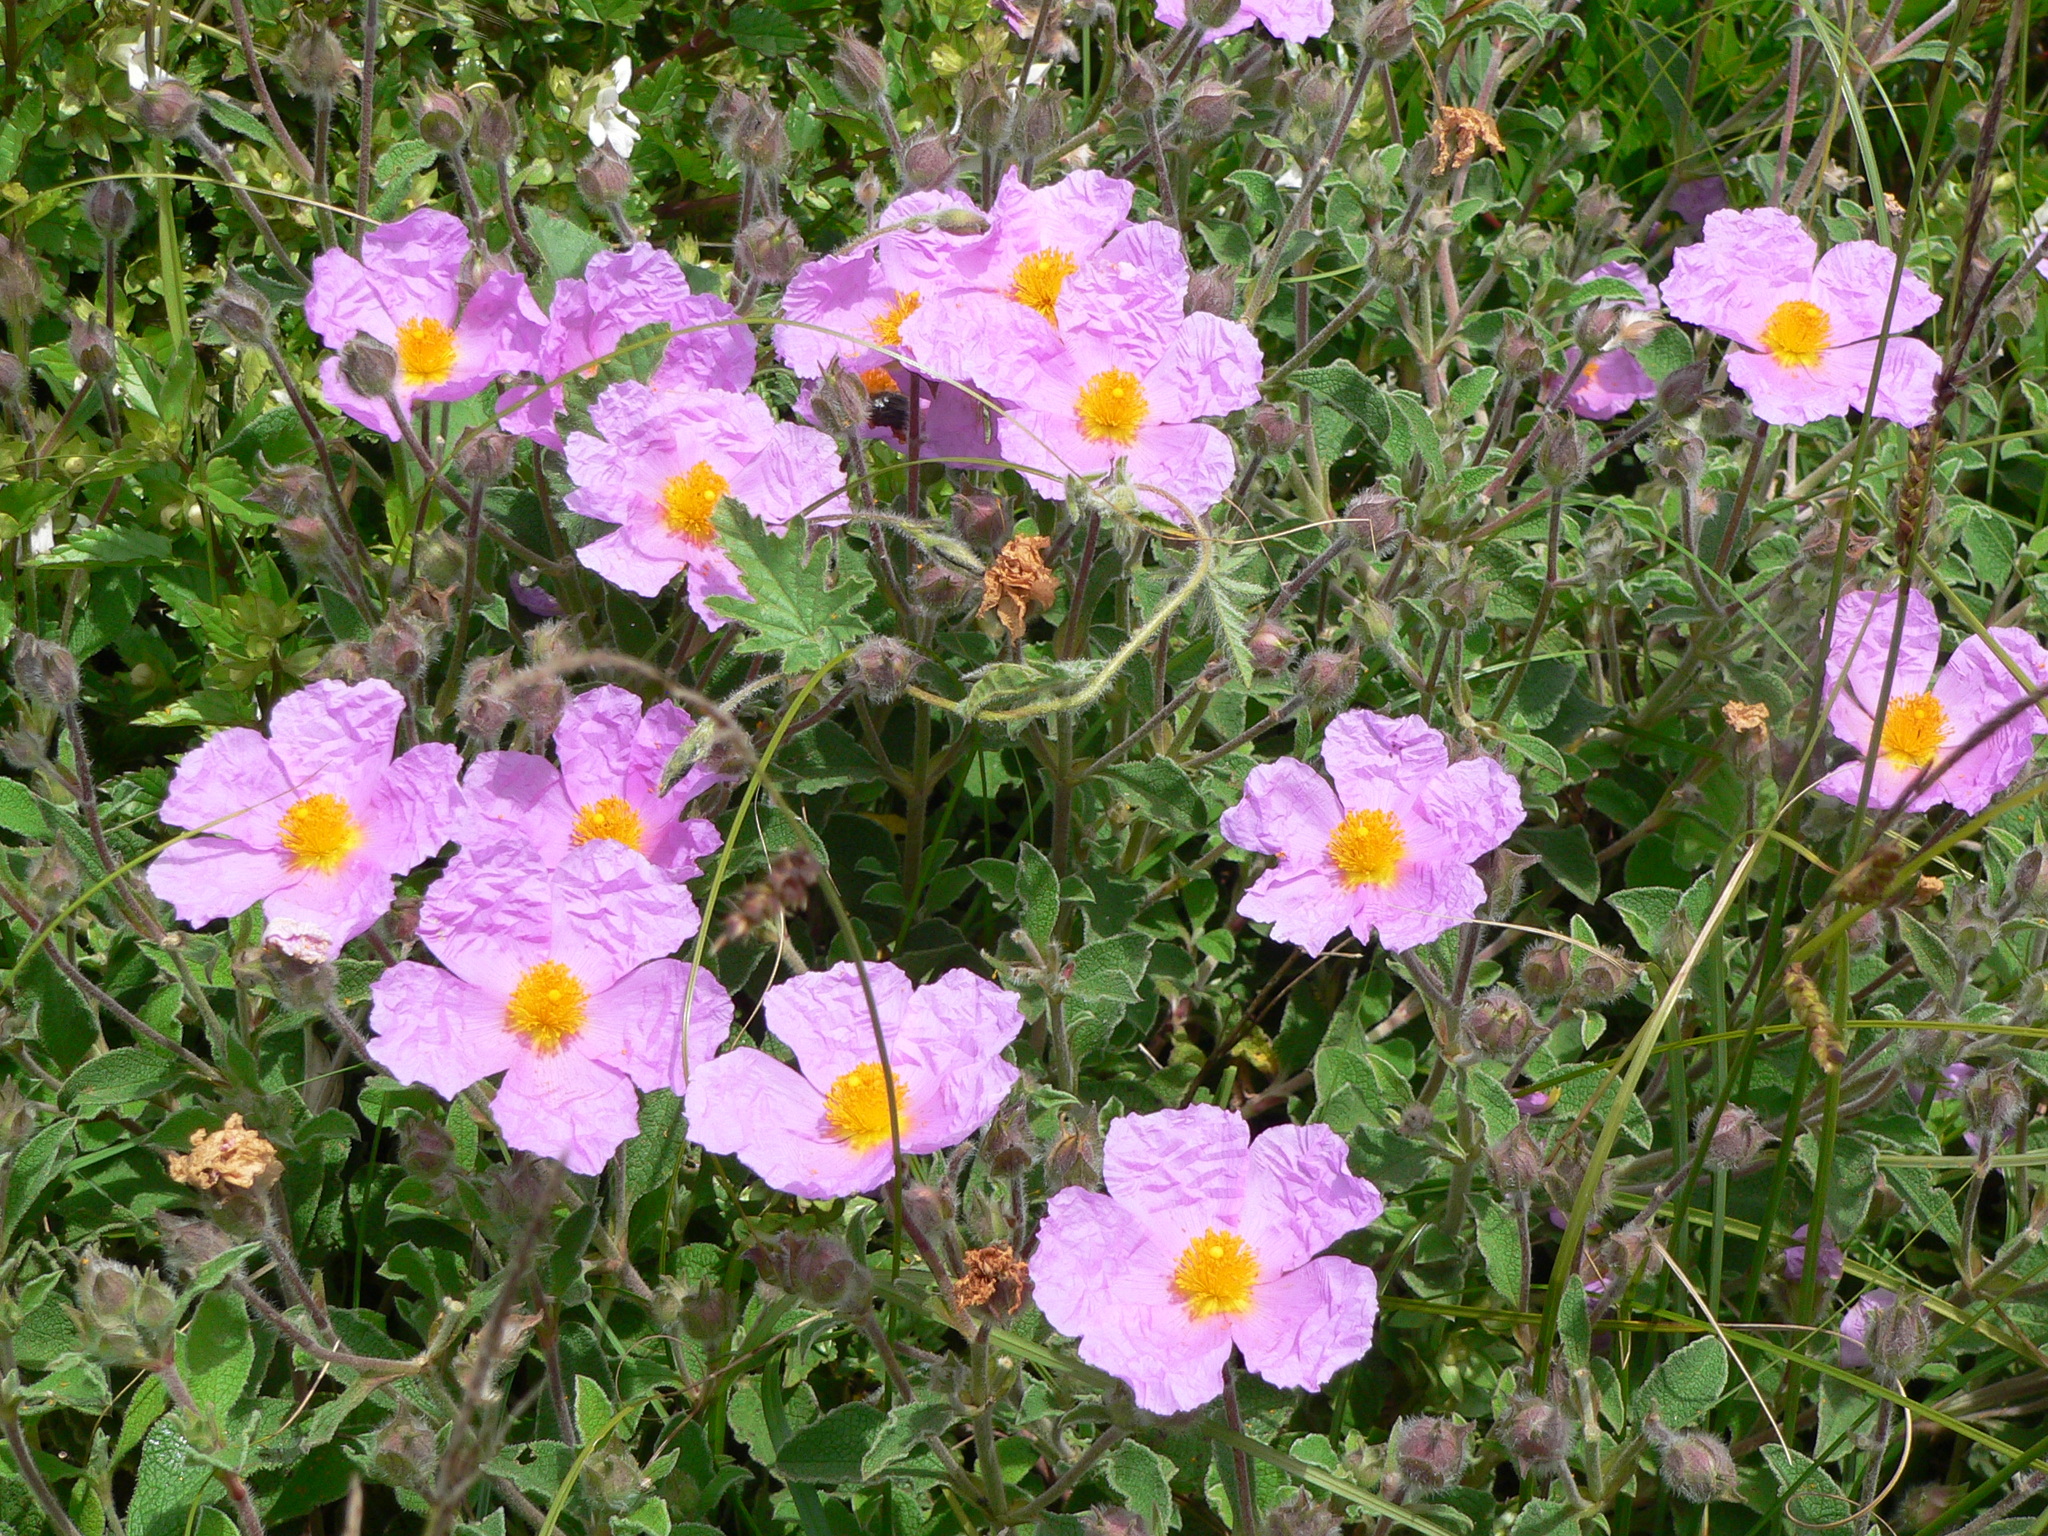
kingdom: Plantae
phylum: Tracheophyta
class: Magnoliopsida
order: Malvales
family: Cistaceae
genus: Cistus
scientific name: Cistus creticus
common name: Cretan rockrose
